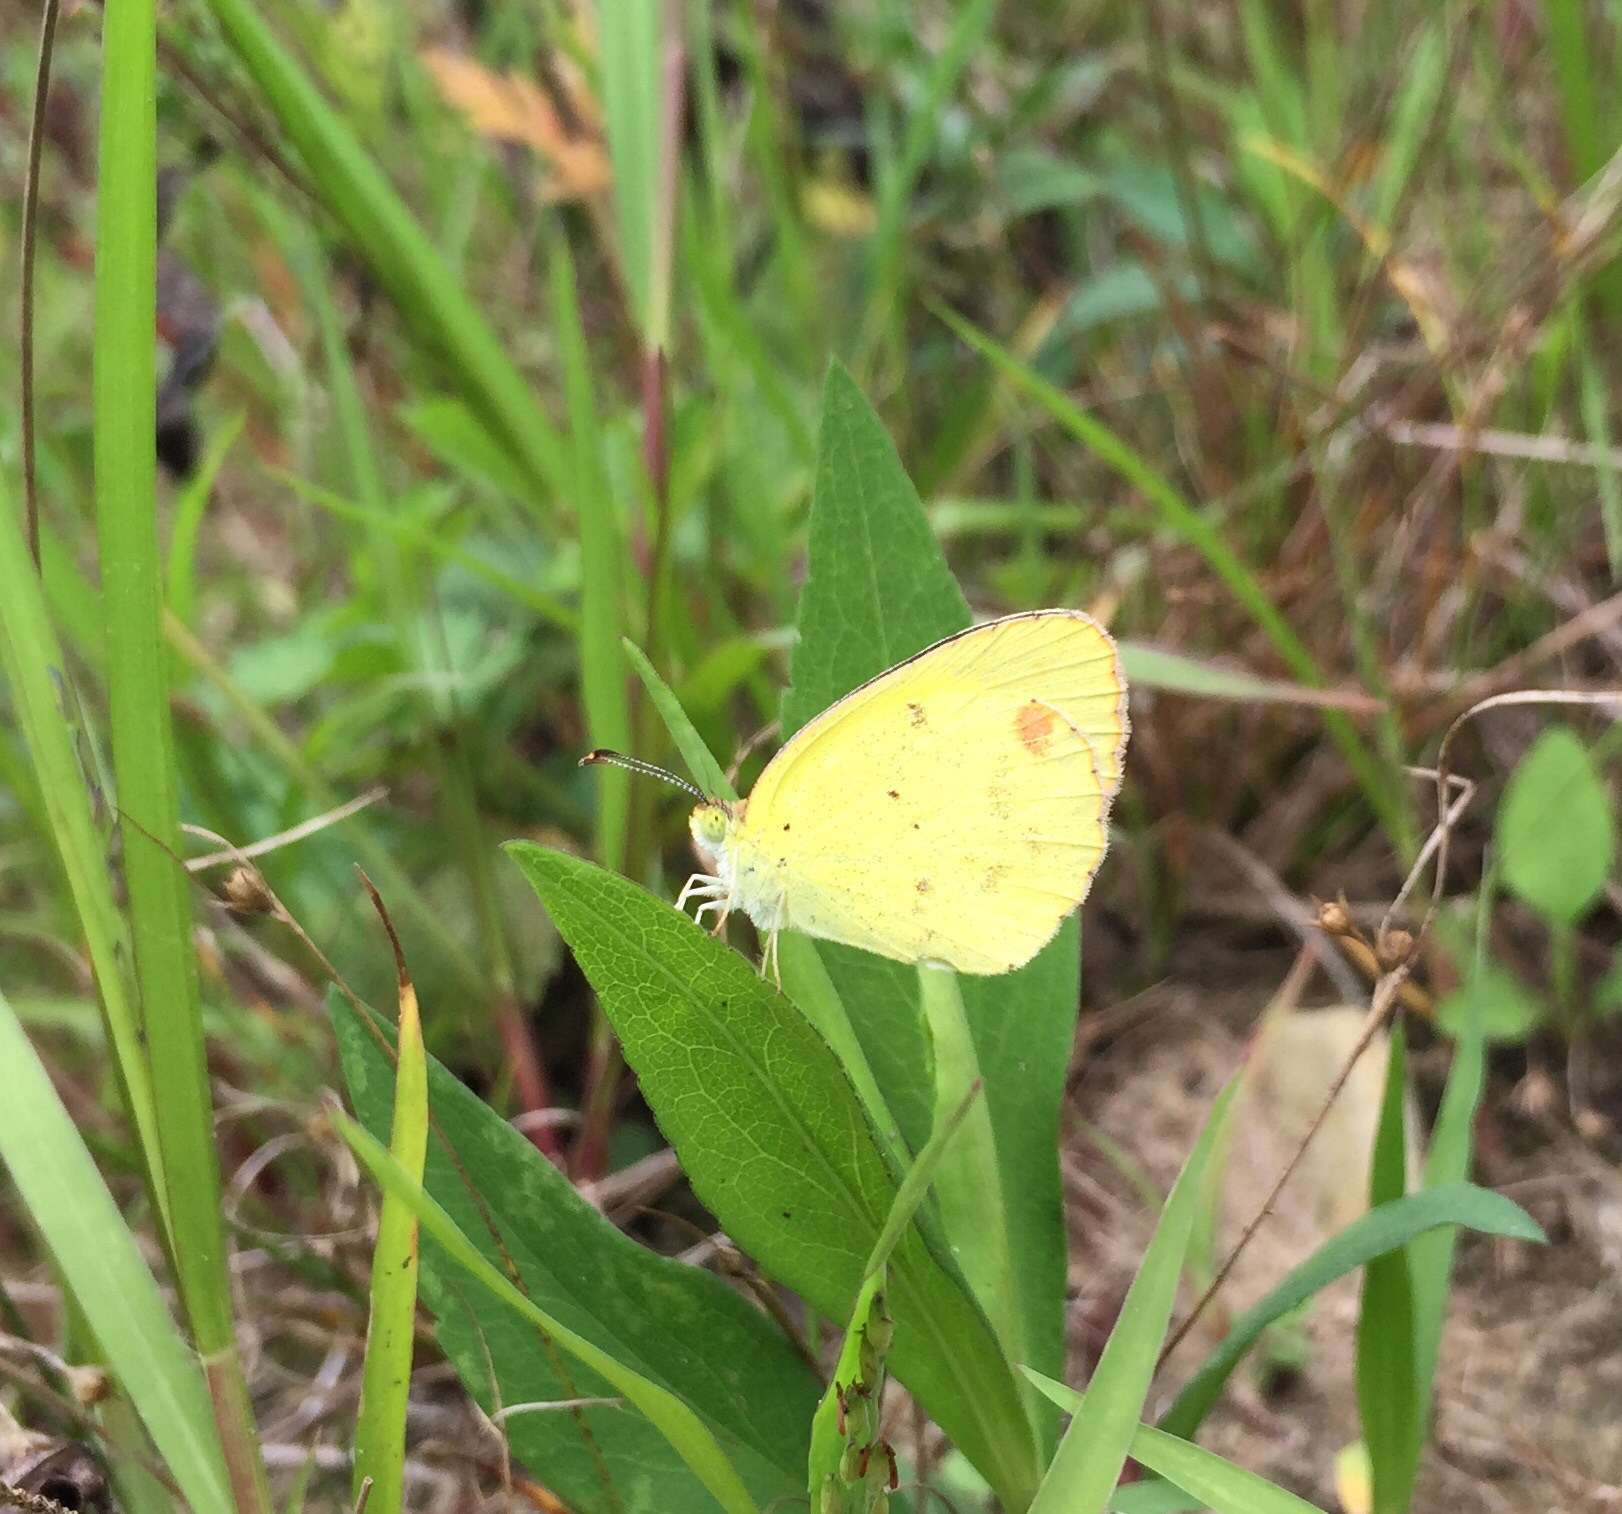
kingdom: Animalia
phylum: Arthropoda
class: Insecta
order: Lepidoptera
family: Pieridae
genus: Pyrisitia
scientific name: Pyrisitia lisa
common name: Little yellow
